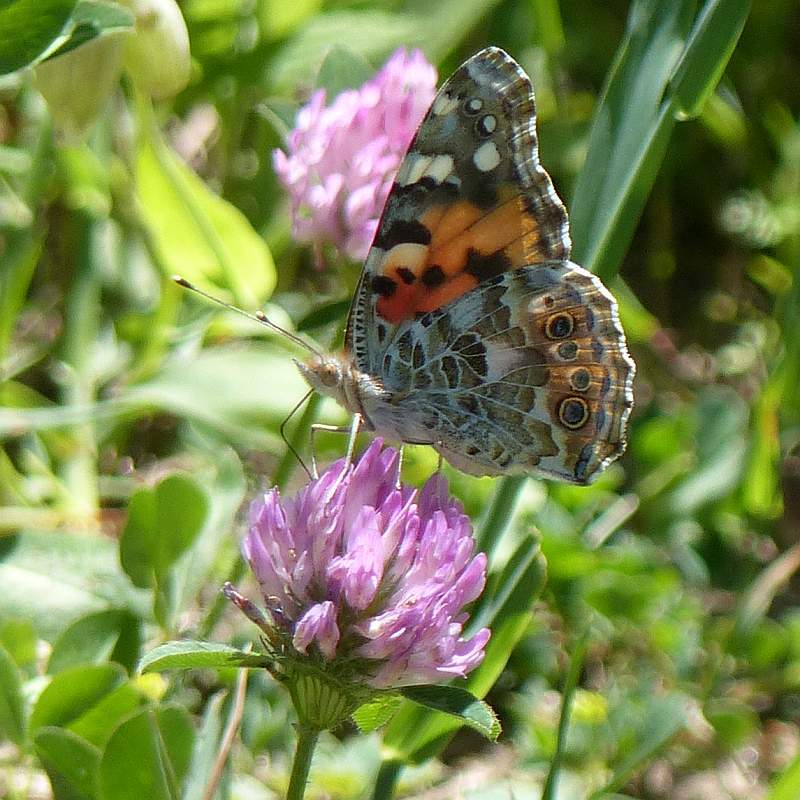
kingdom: Animalia
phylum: Arthropoda
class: Insecta
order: Lepidoptera
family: Nymphalidae
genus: Vanessa
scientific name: Vanessa cardui
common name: Painted lady
